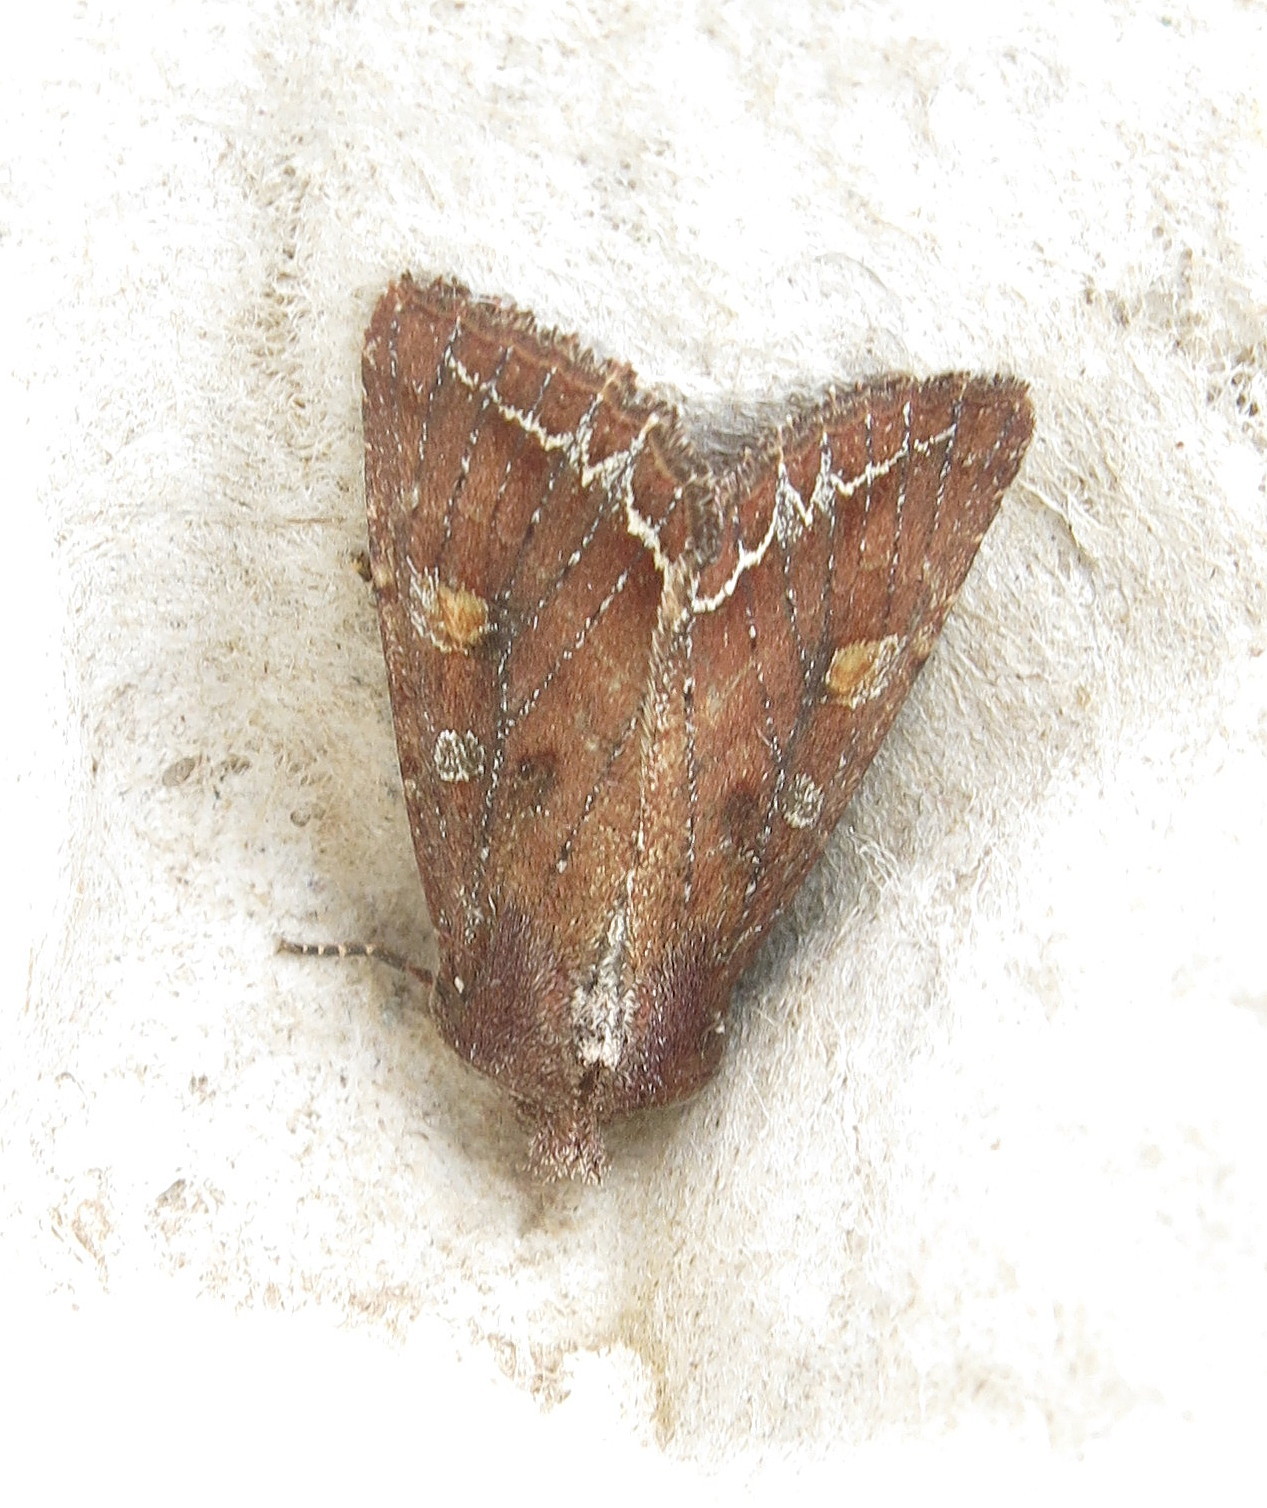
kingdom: Animalia
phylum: Arthropoda
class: Insecta
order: Lepidoptera
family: Noctuidae
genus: Lacanobia
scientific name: Lacanobia oleracea
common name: Bright-line brown-eye
